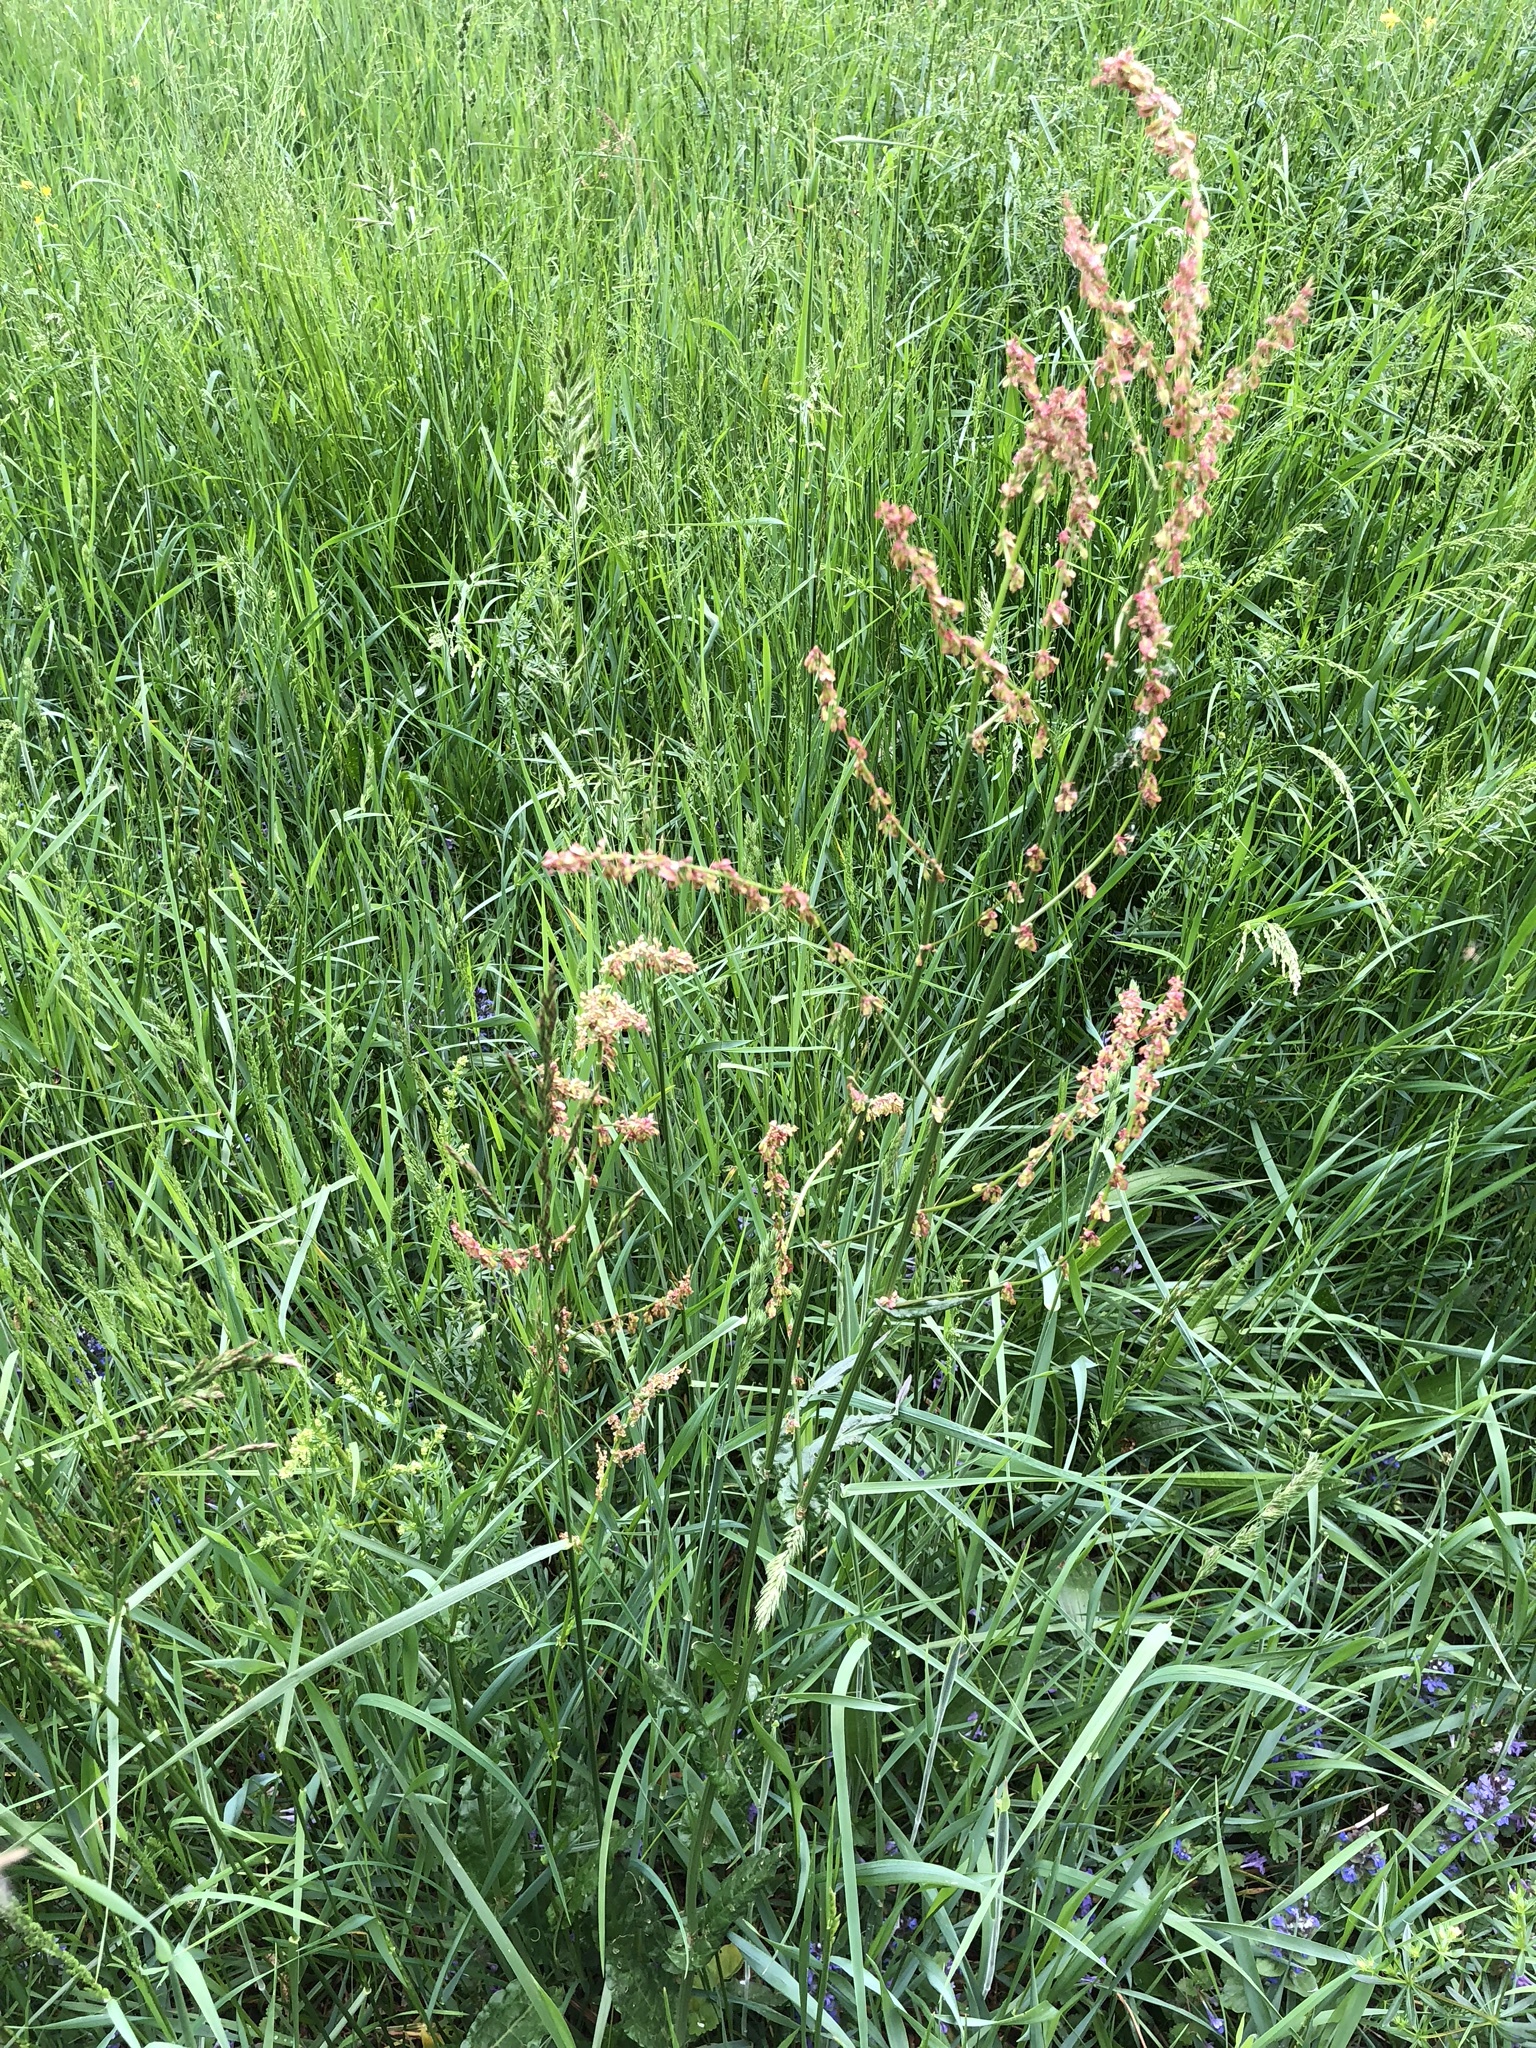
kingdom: Plantae
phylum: Tracheophyta
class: Magnoliopsida
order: Caryophyllales
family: Polygonaceae
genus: Rumex
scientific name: Rumex acetosa
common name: Garden sorrel
